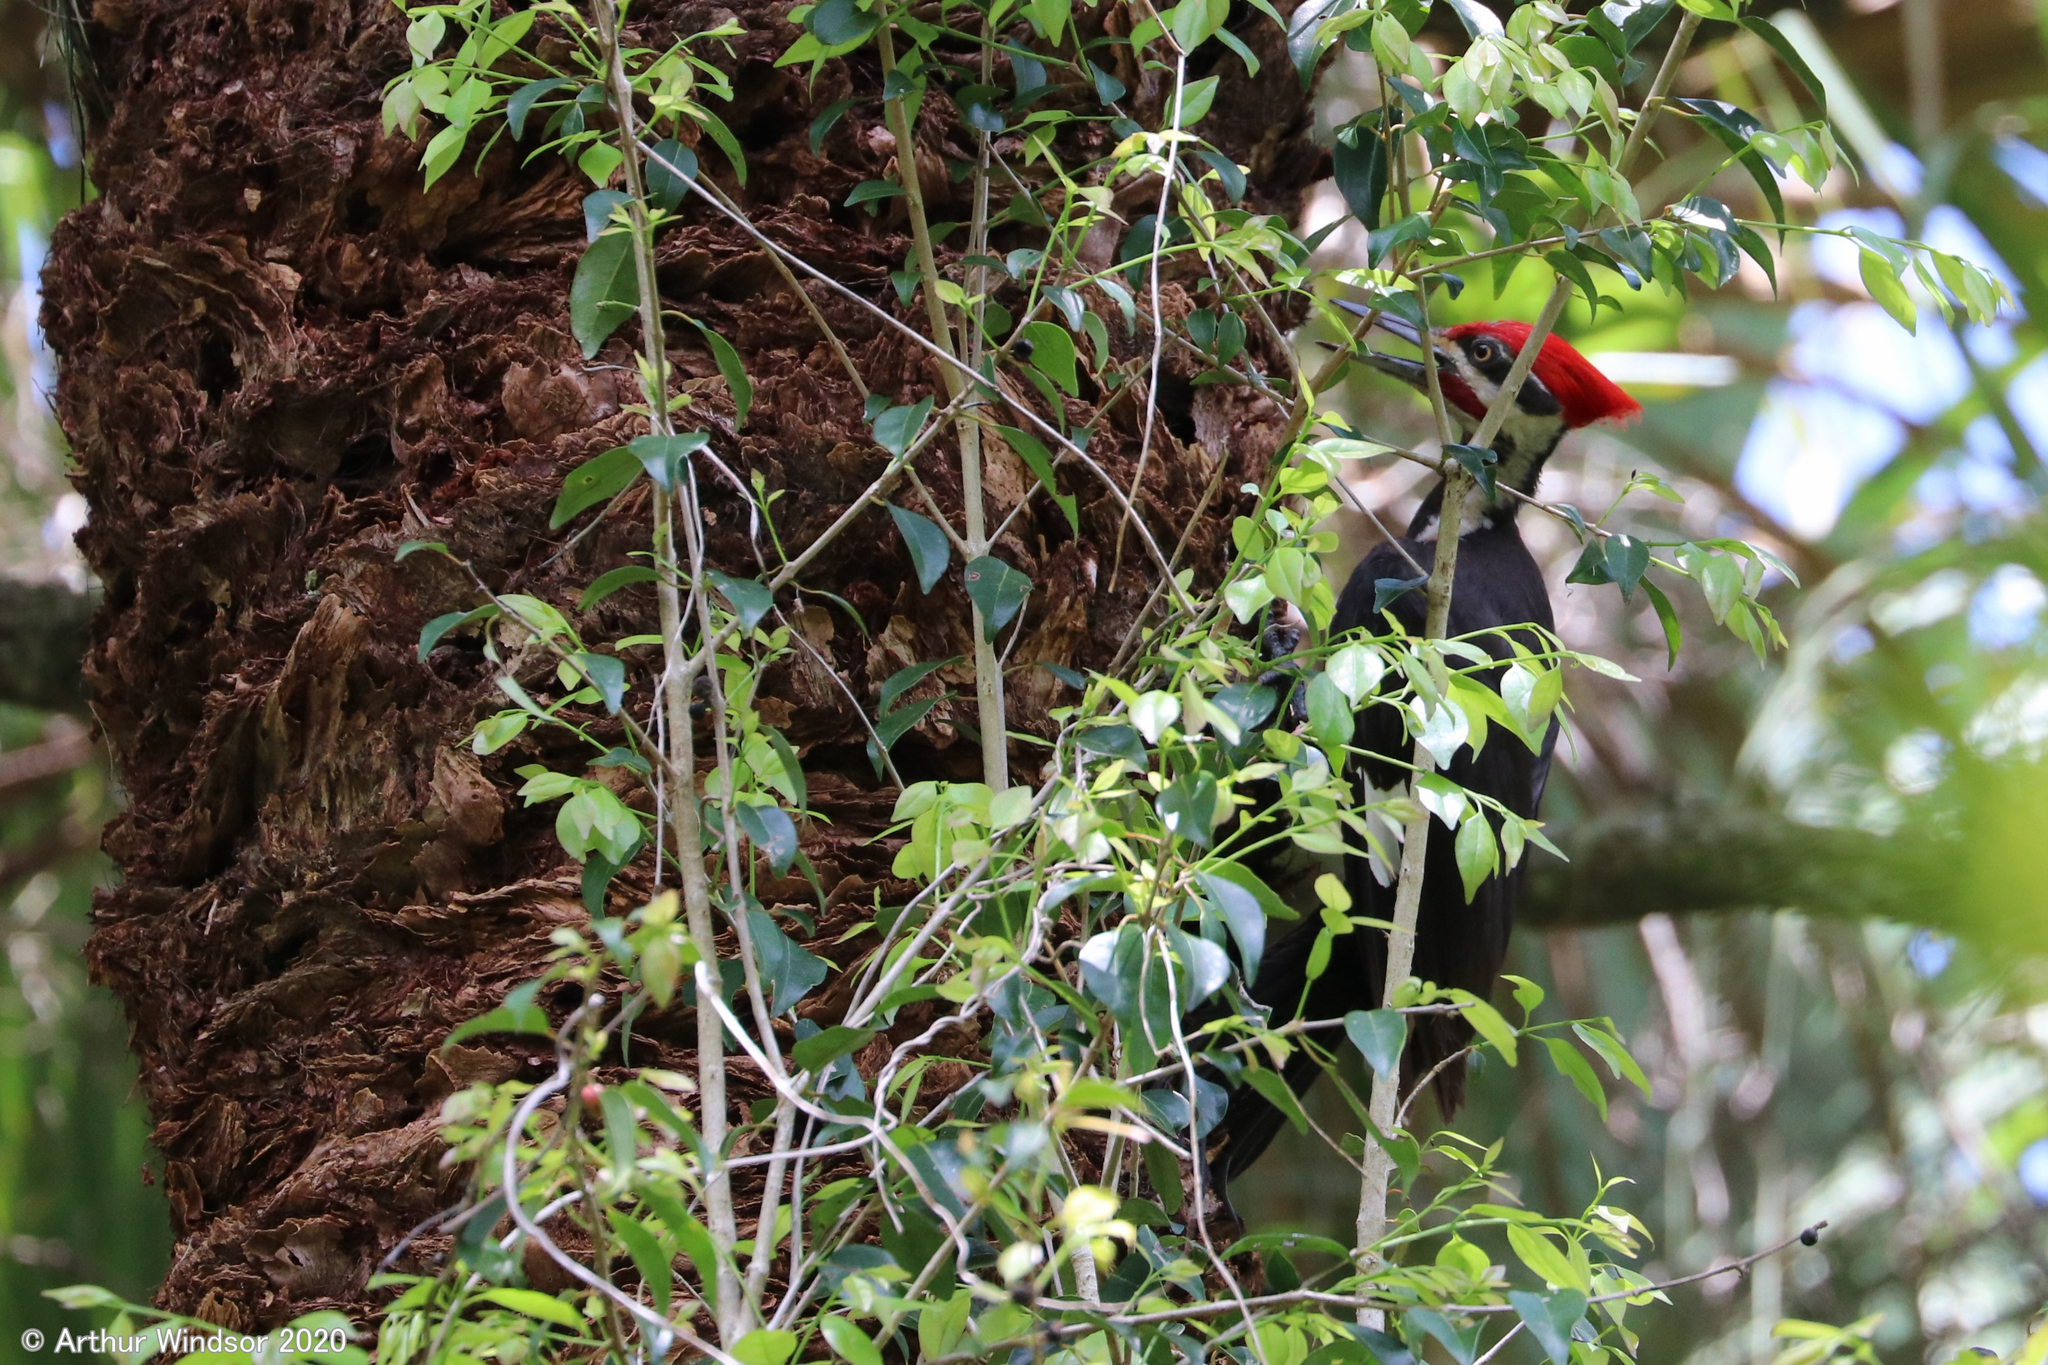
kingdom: Animalia
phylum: Chordata
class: Aves
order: Piciformes
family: Picidae
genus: Dryocopus
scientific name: Dryocopus pileatus
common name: Pileated woodpecker
